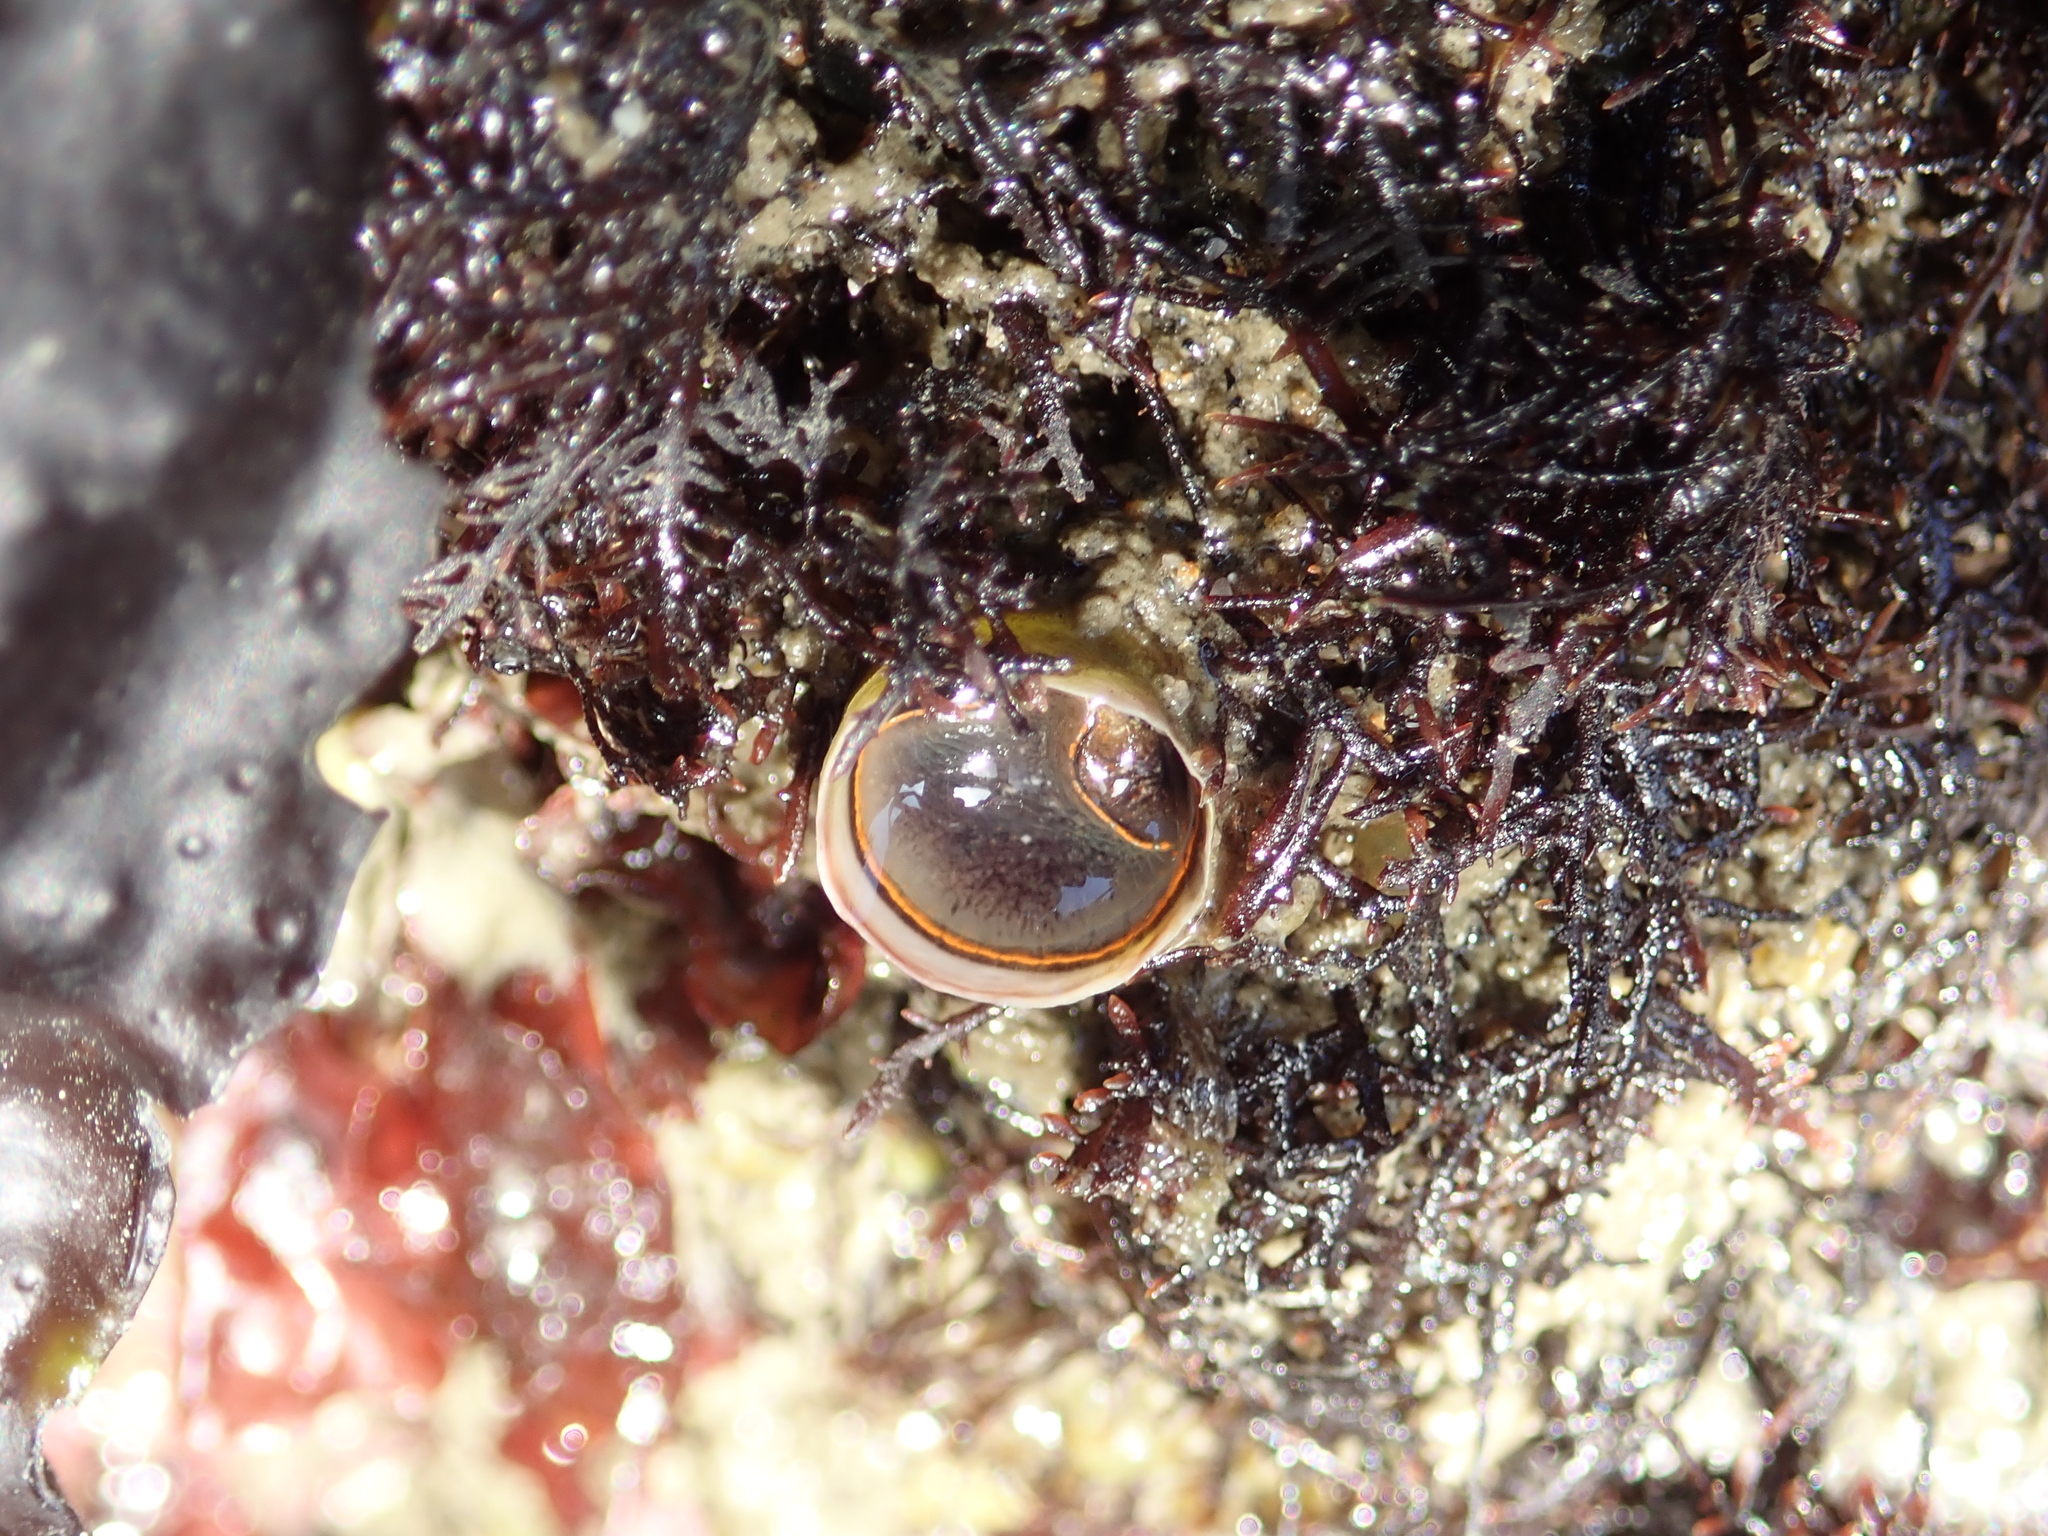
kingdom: Animalia
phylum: Mollusca
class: Gastropoda
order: Littorinimorpha
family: Vermetidae
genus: Thylacodes
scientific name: Thylacodes squamigerus
